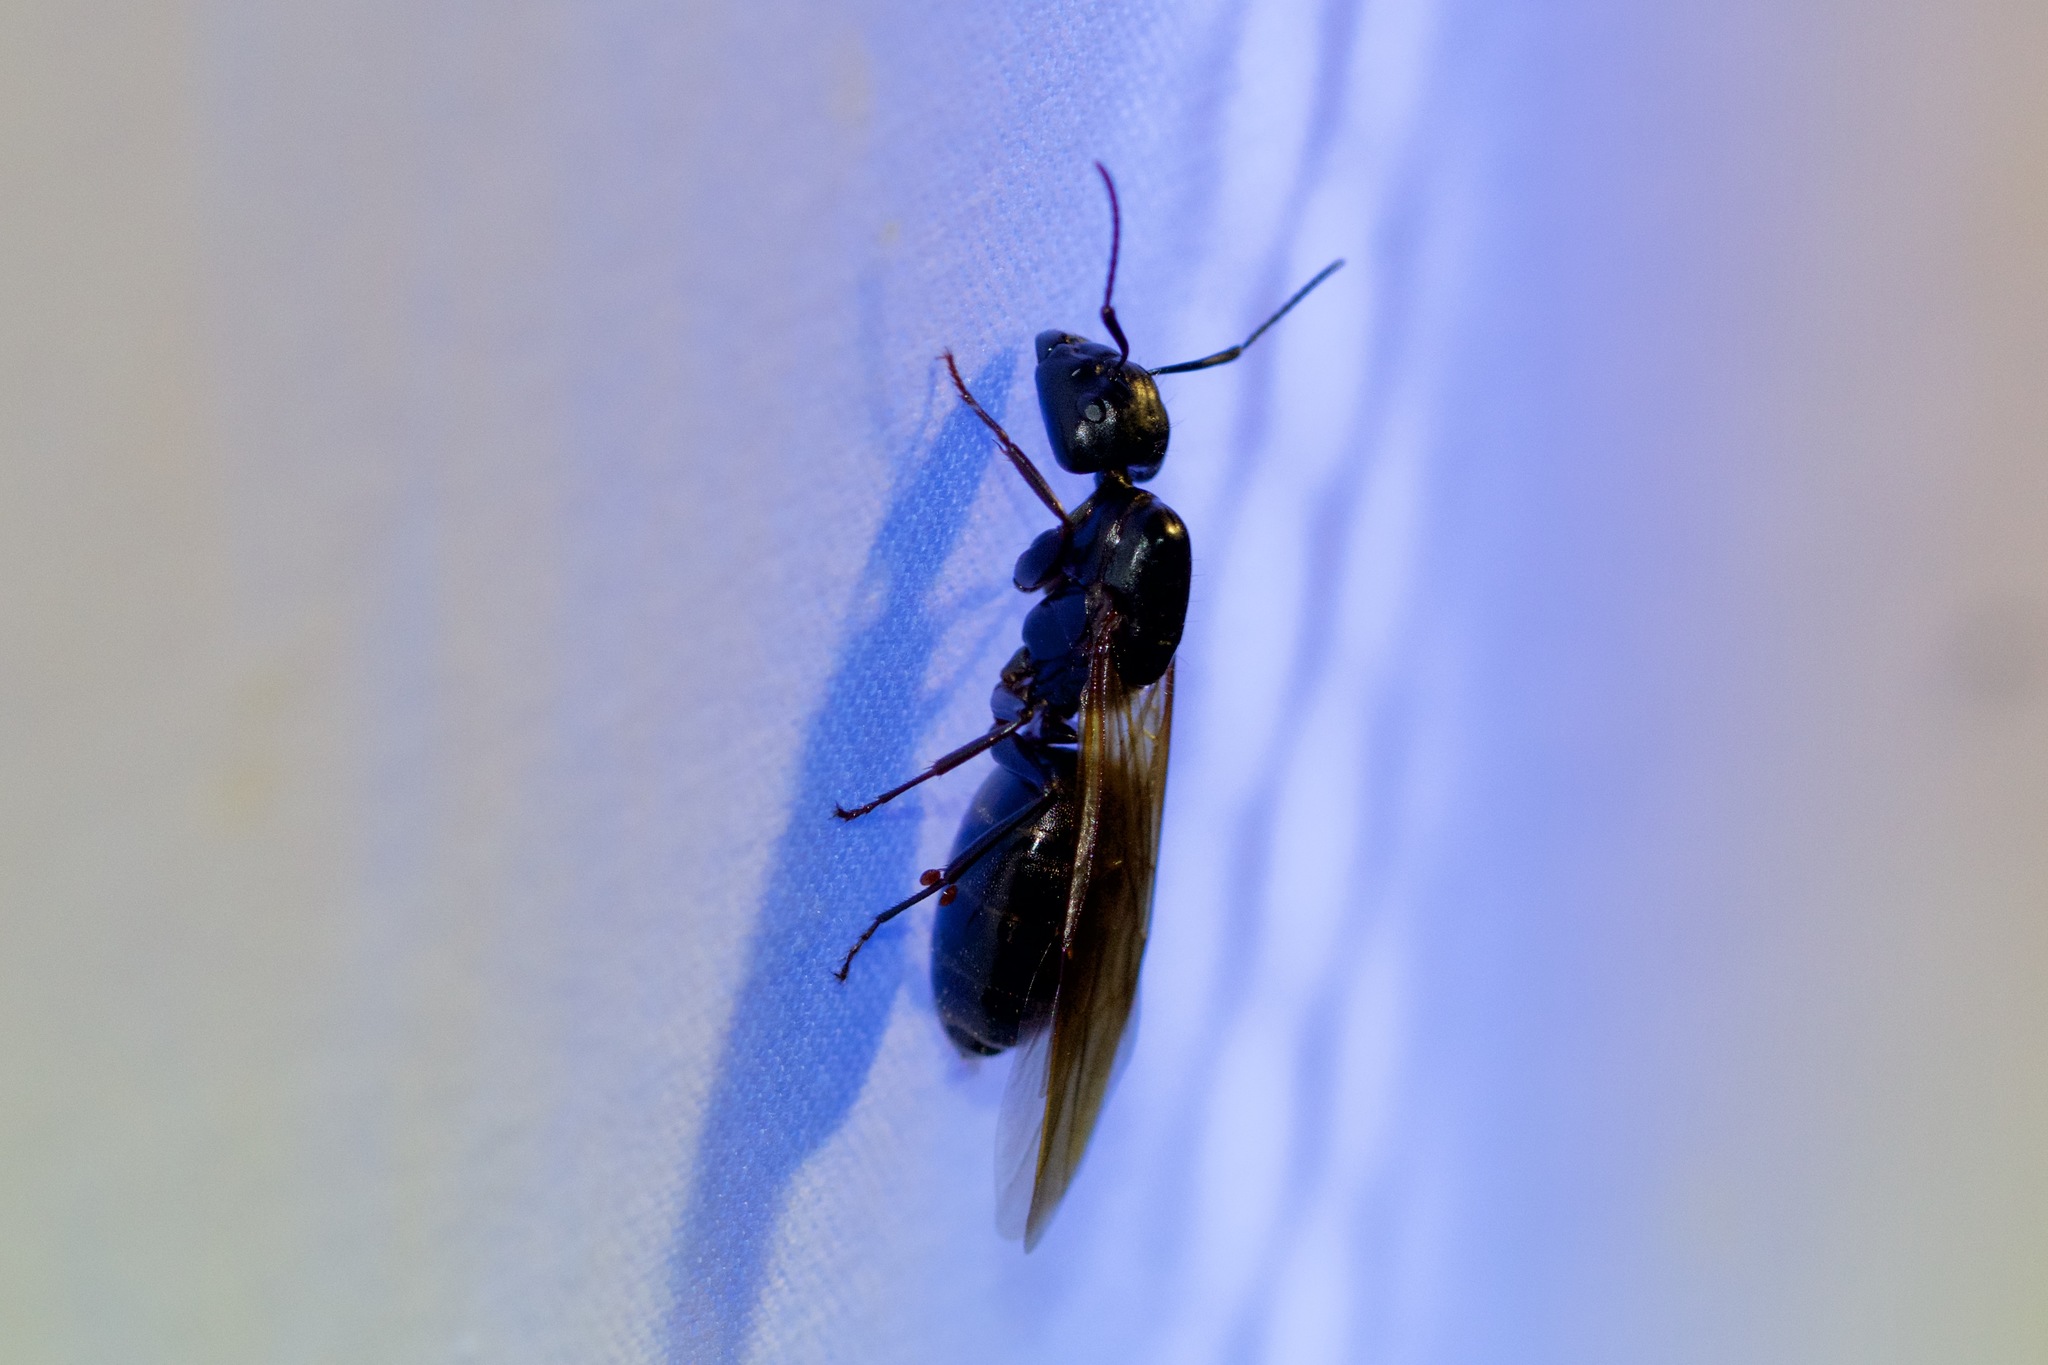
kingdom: Animalia
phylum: Arthropoda
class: Insecta
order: Hymenoptera
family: Formicidae
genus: Camponotus
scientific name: Camponotus pennsylvanicus
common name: Black carpenter ant
